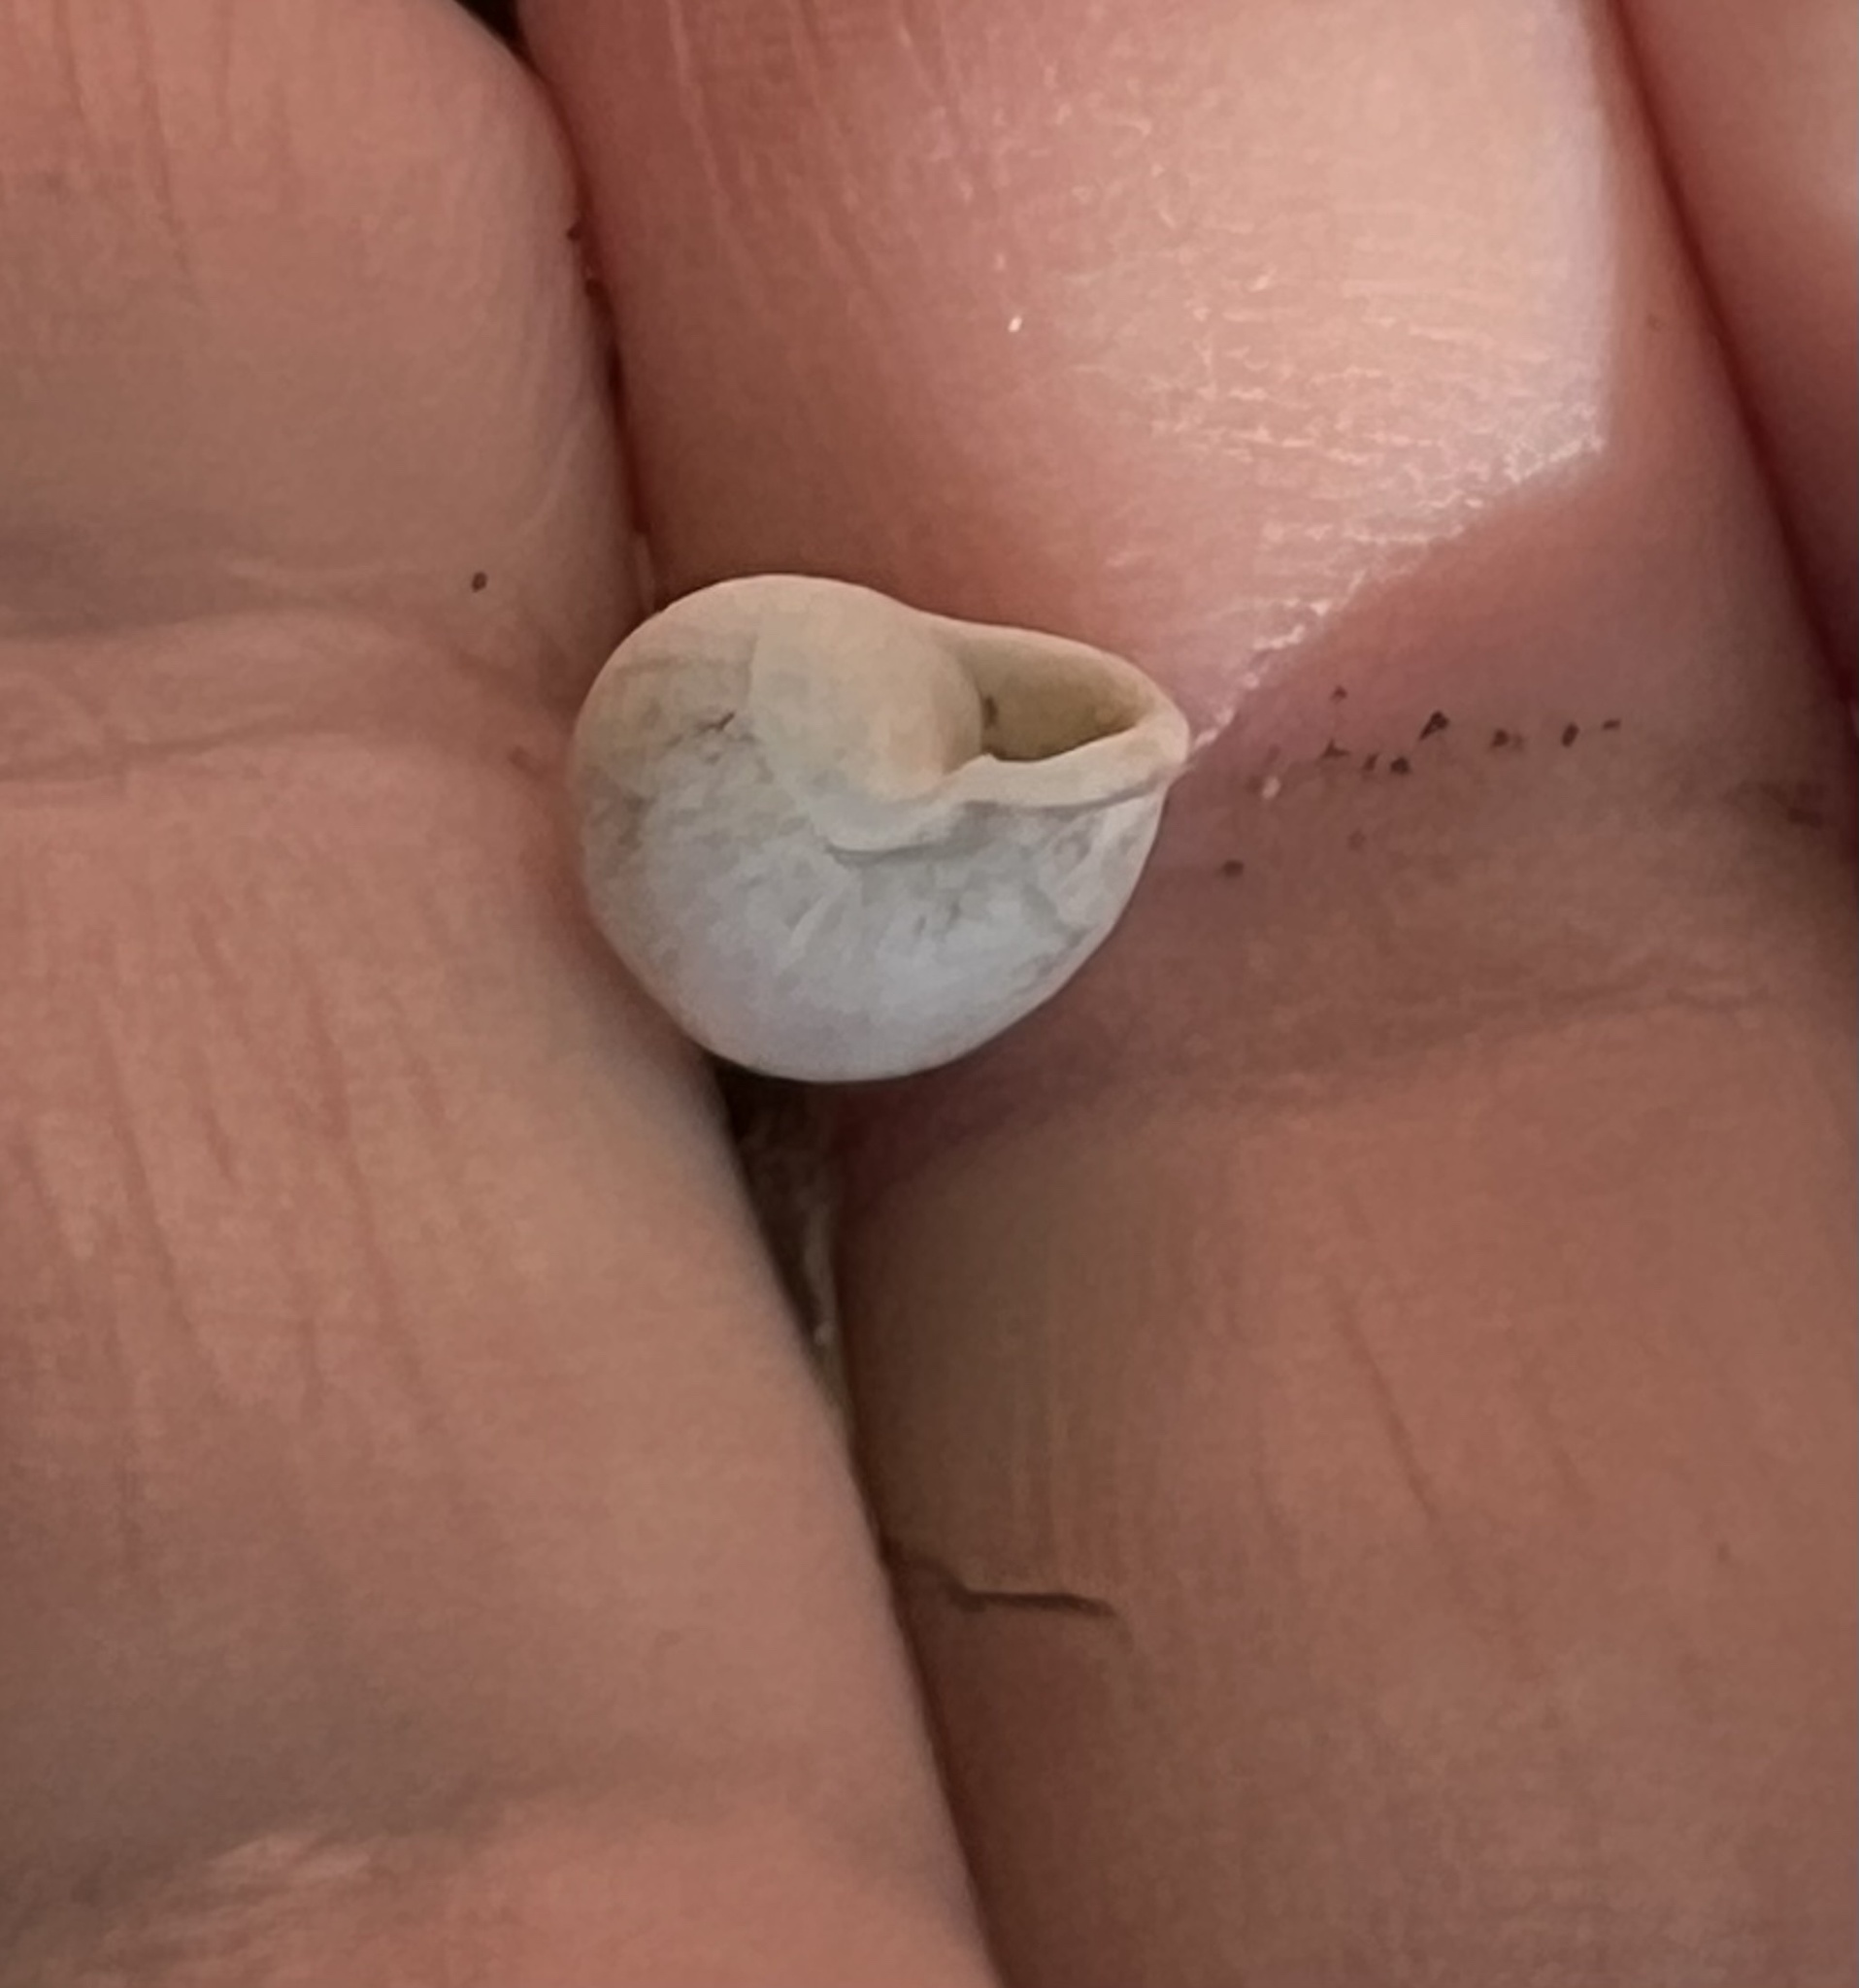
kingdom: Animalia
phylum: Mollusca
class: Gastropoda
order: Cycloneritida
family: Helicinidae
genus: Helicina
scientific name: Helicina orbiculata
